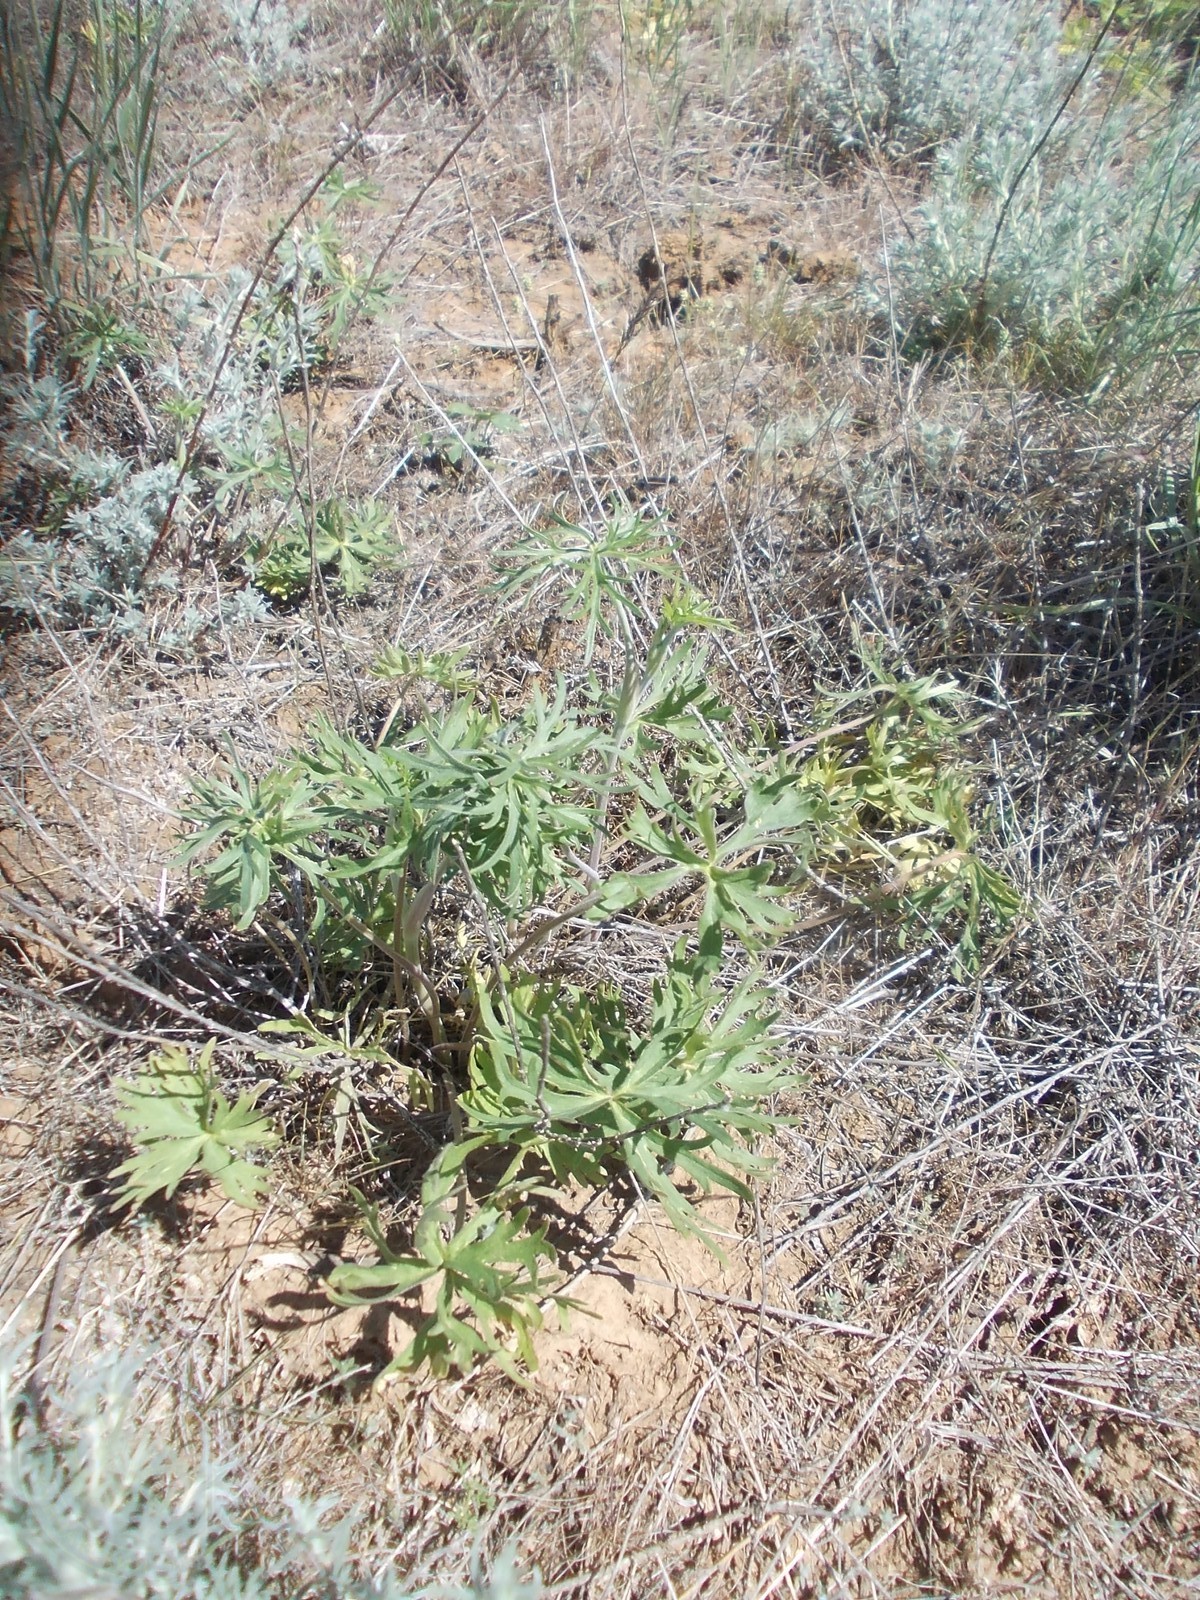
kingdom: Plantae
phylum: Tracheophyta
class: Magnoliopsida
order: Ranunculales
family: Ranunculaceae
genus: Delphinium
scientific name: Delphinium puniceum
